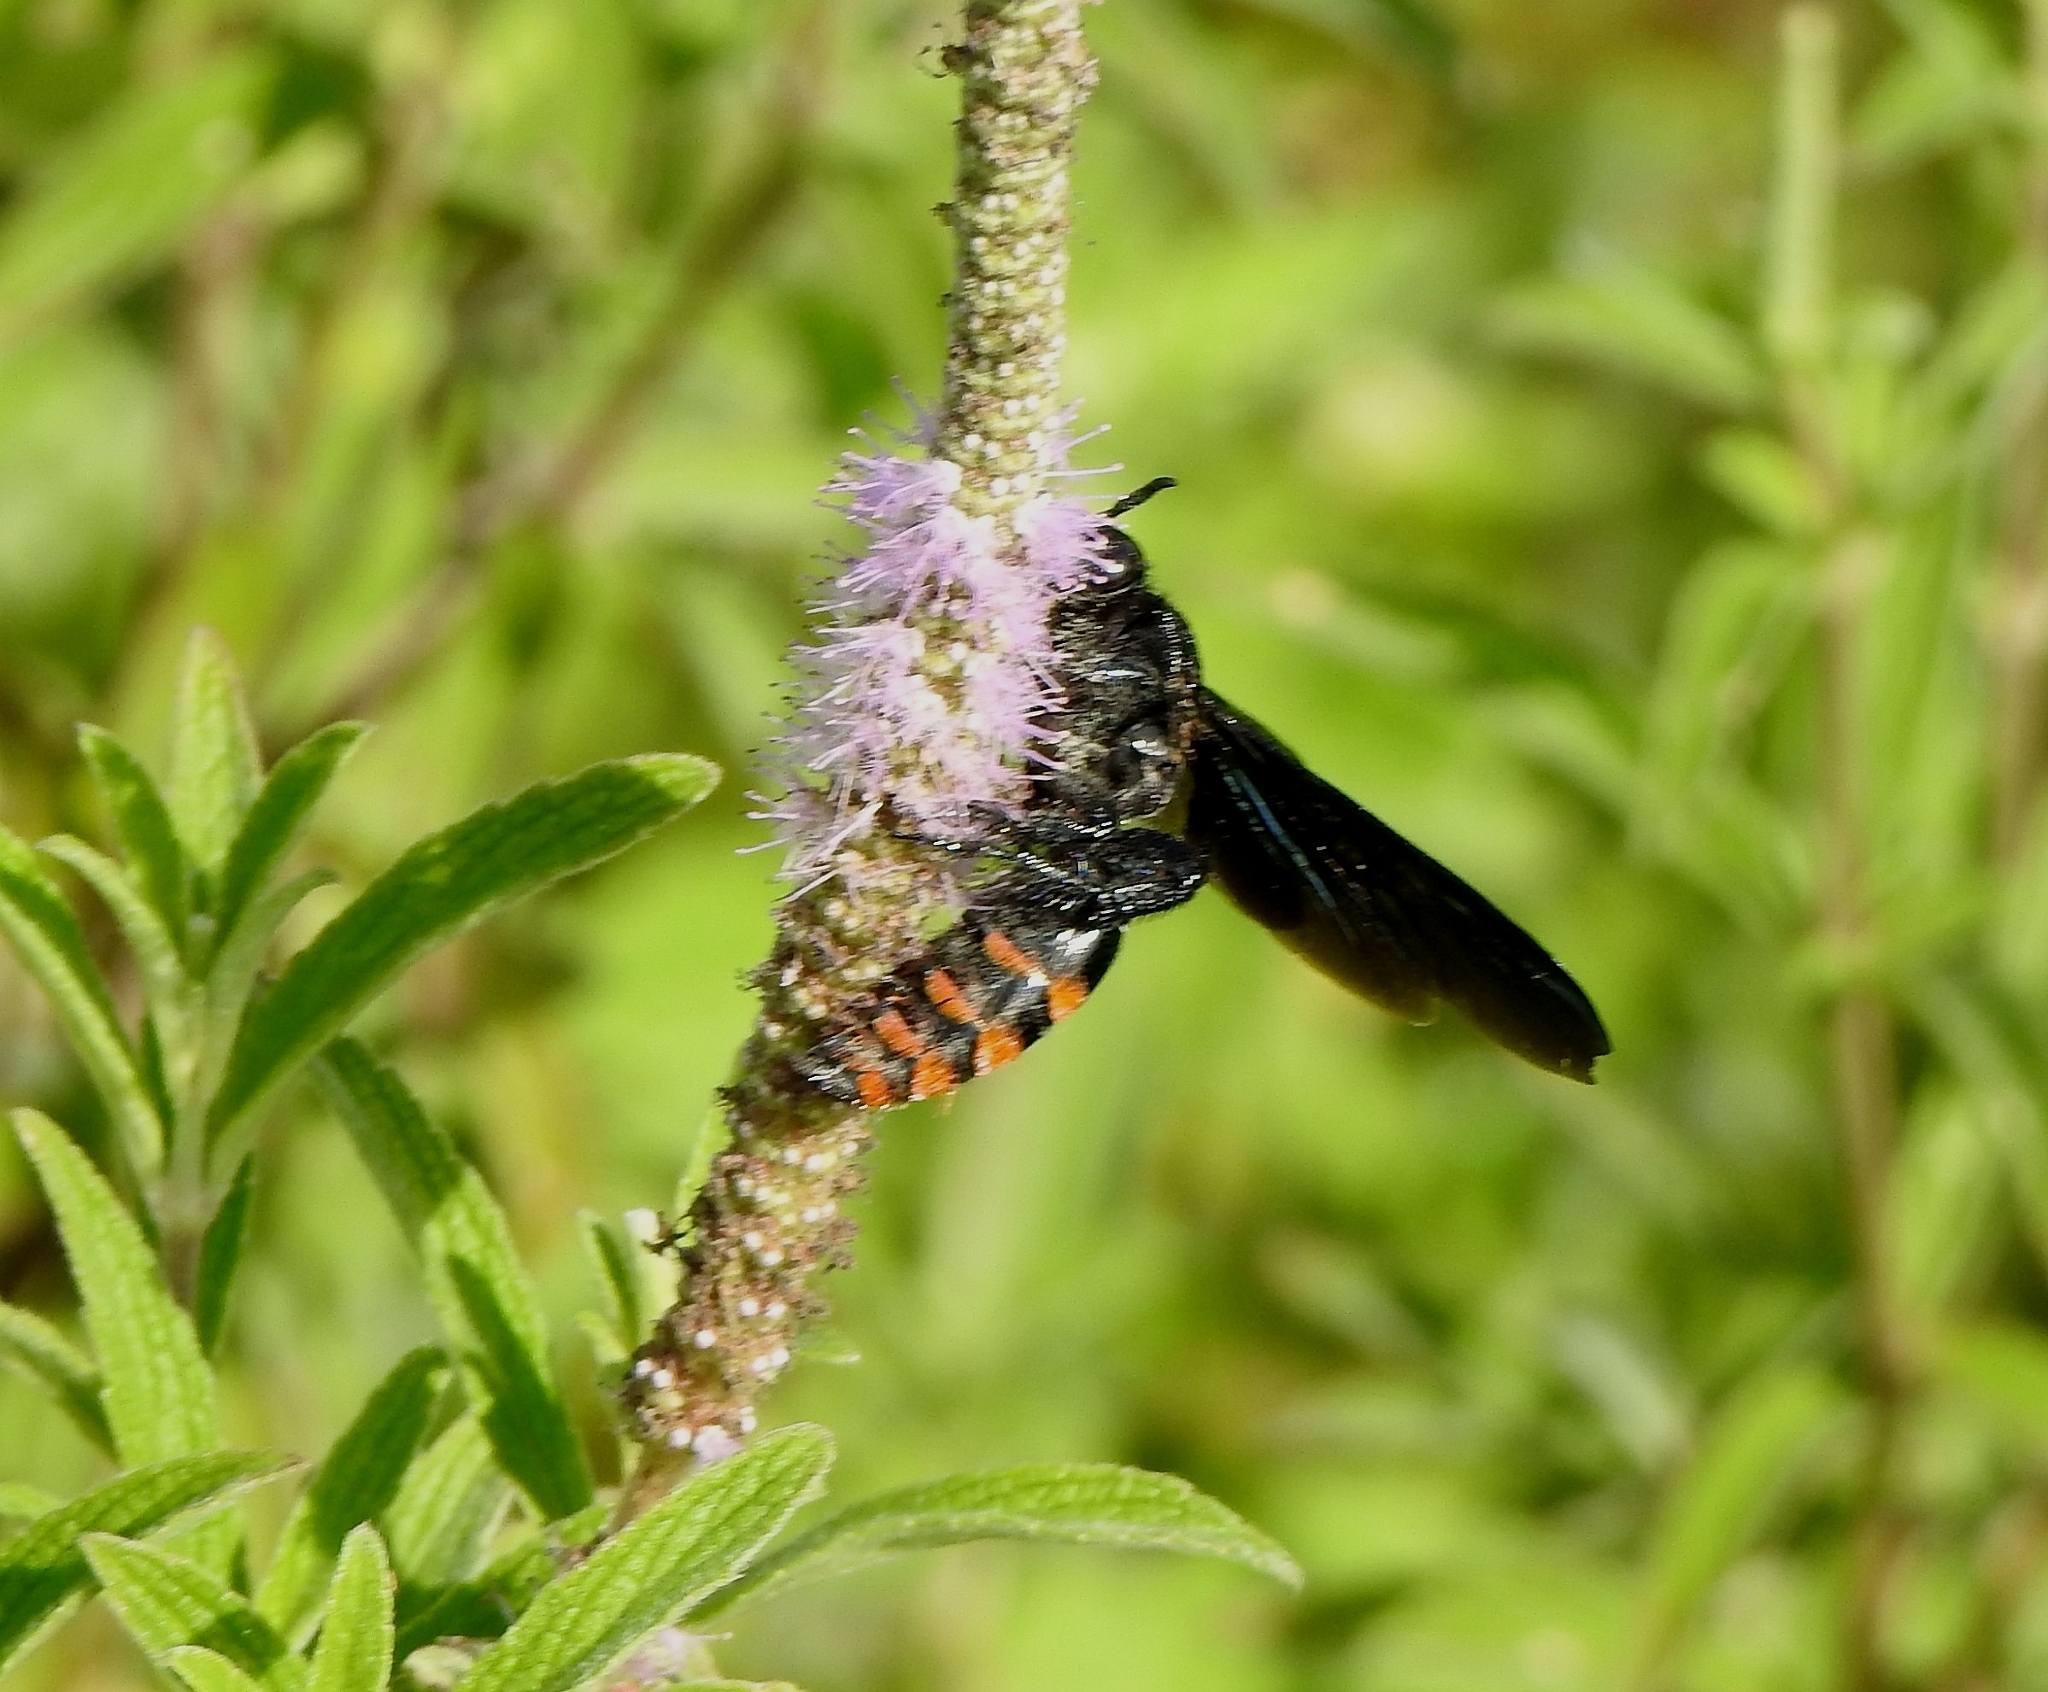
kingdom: Animalia
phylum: Arthropoda
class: Insecta
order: Hymenoptera
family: Scoliidae
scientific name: Scoliidae
